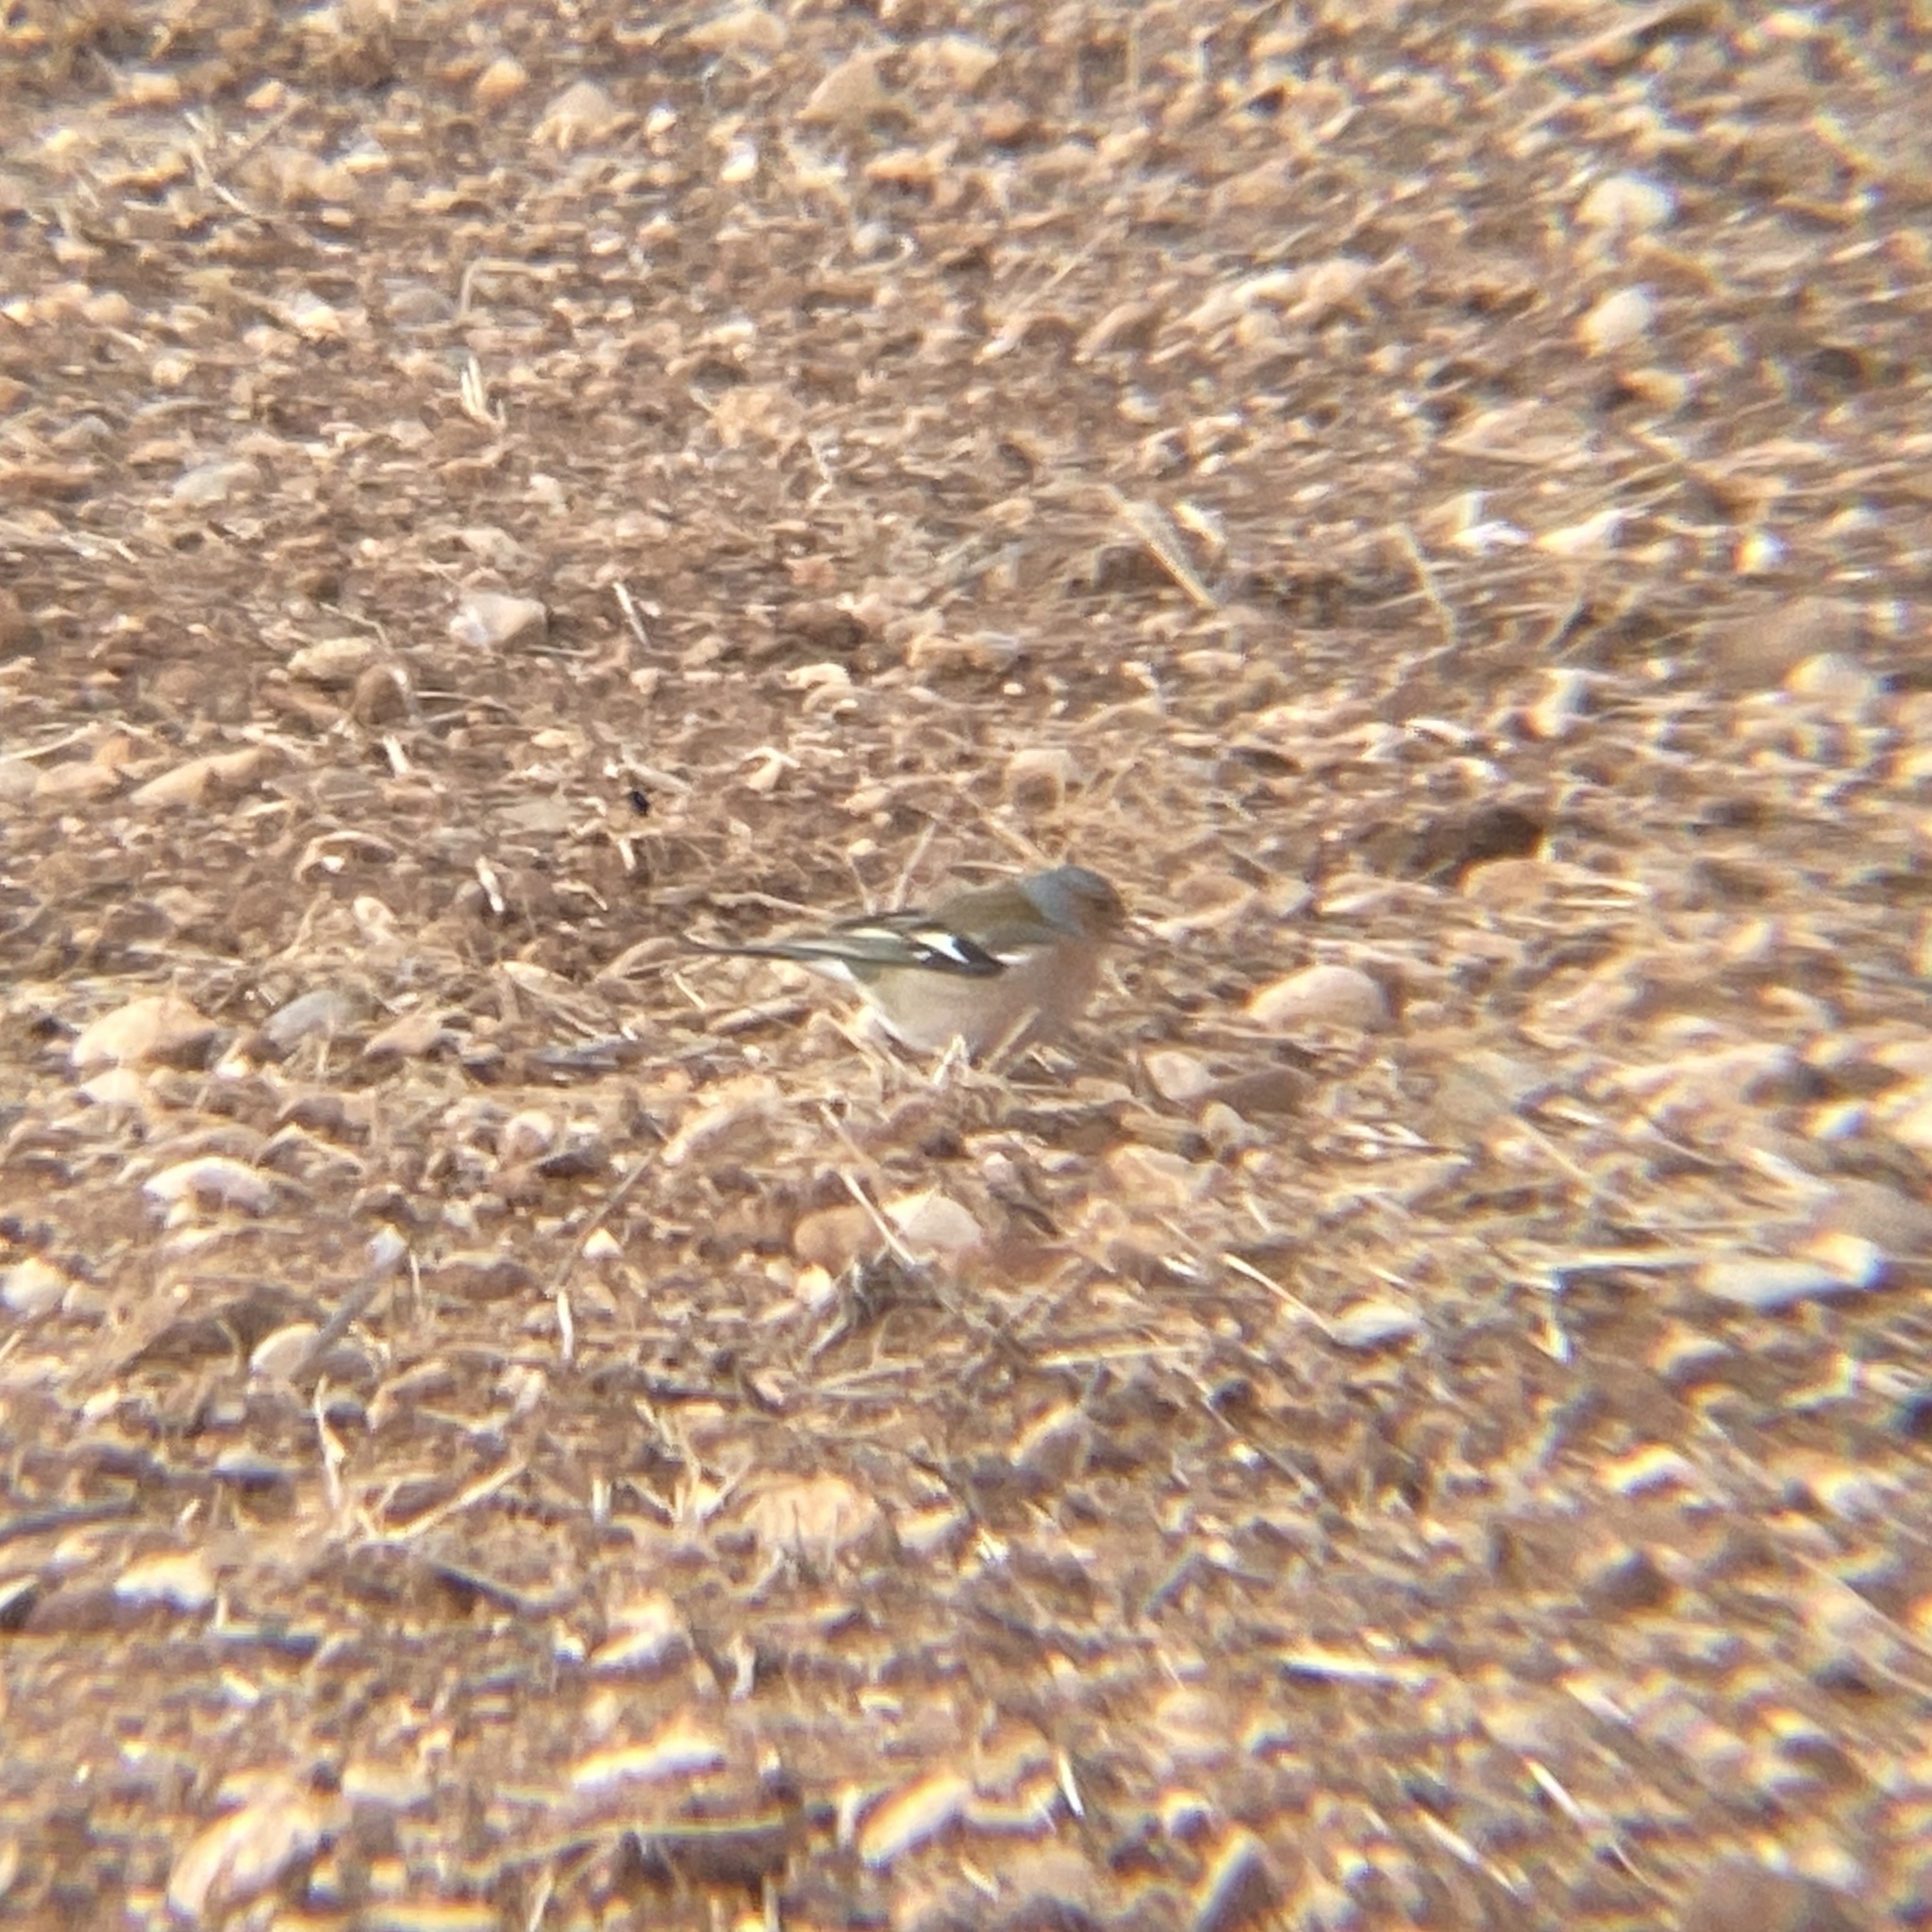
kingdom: Animalia
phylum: Chordata
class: Aves
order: Passeriformes
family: Fringillidae
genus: Fringilla
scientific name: Fringilla coelebs
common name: Common chaffinch
